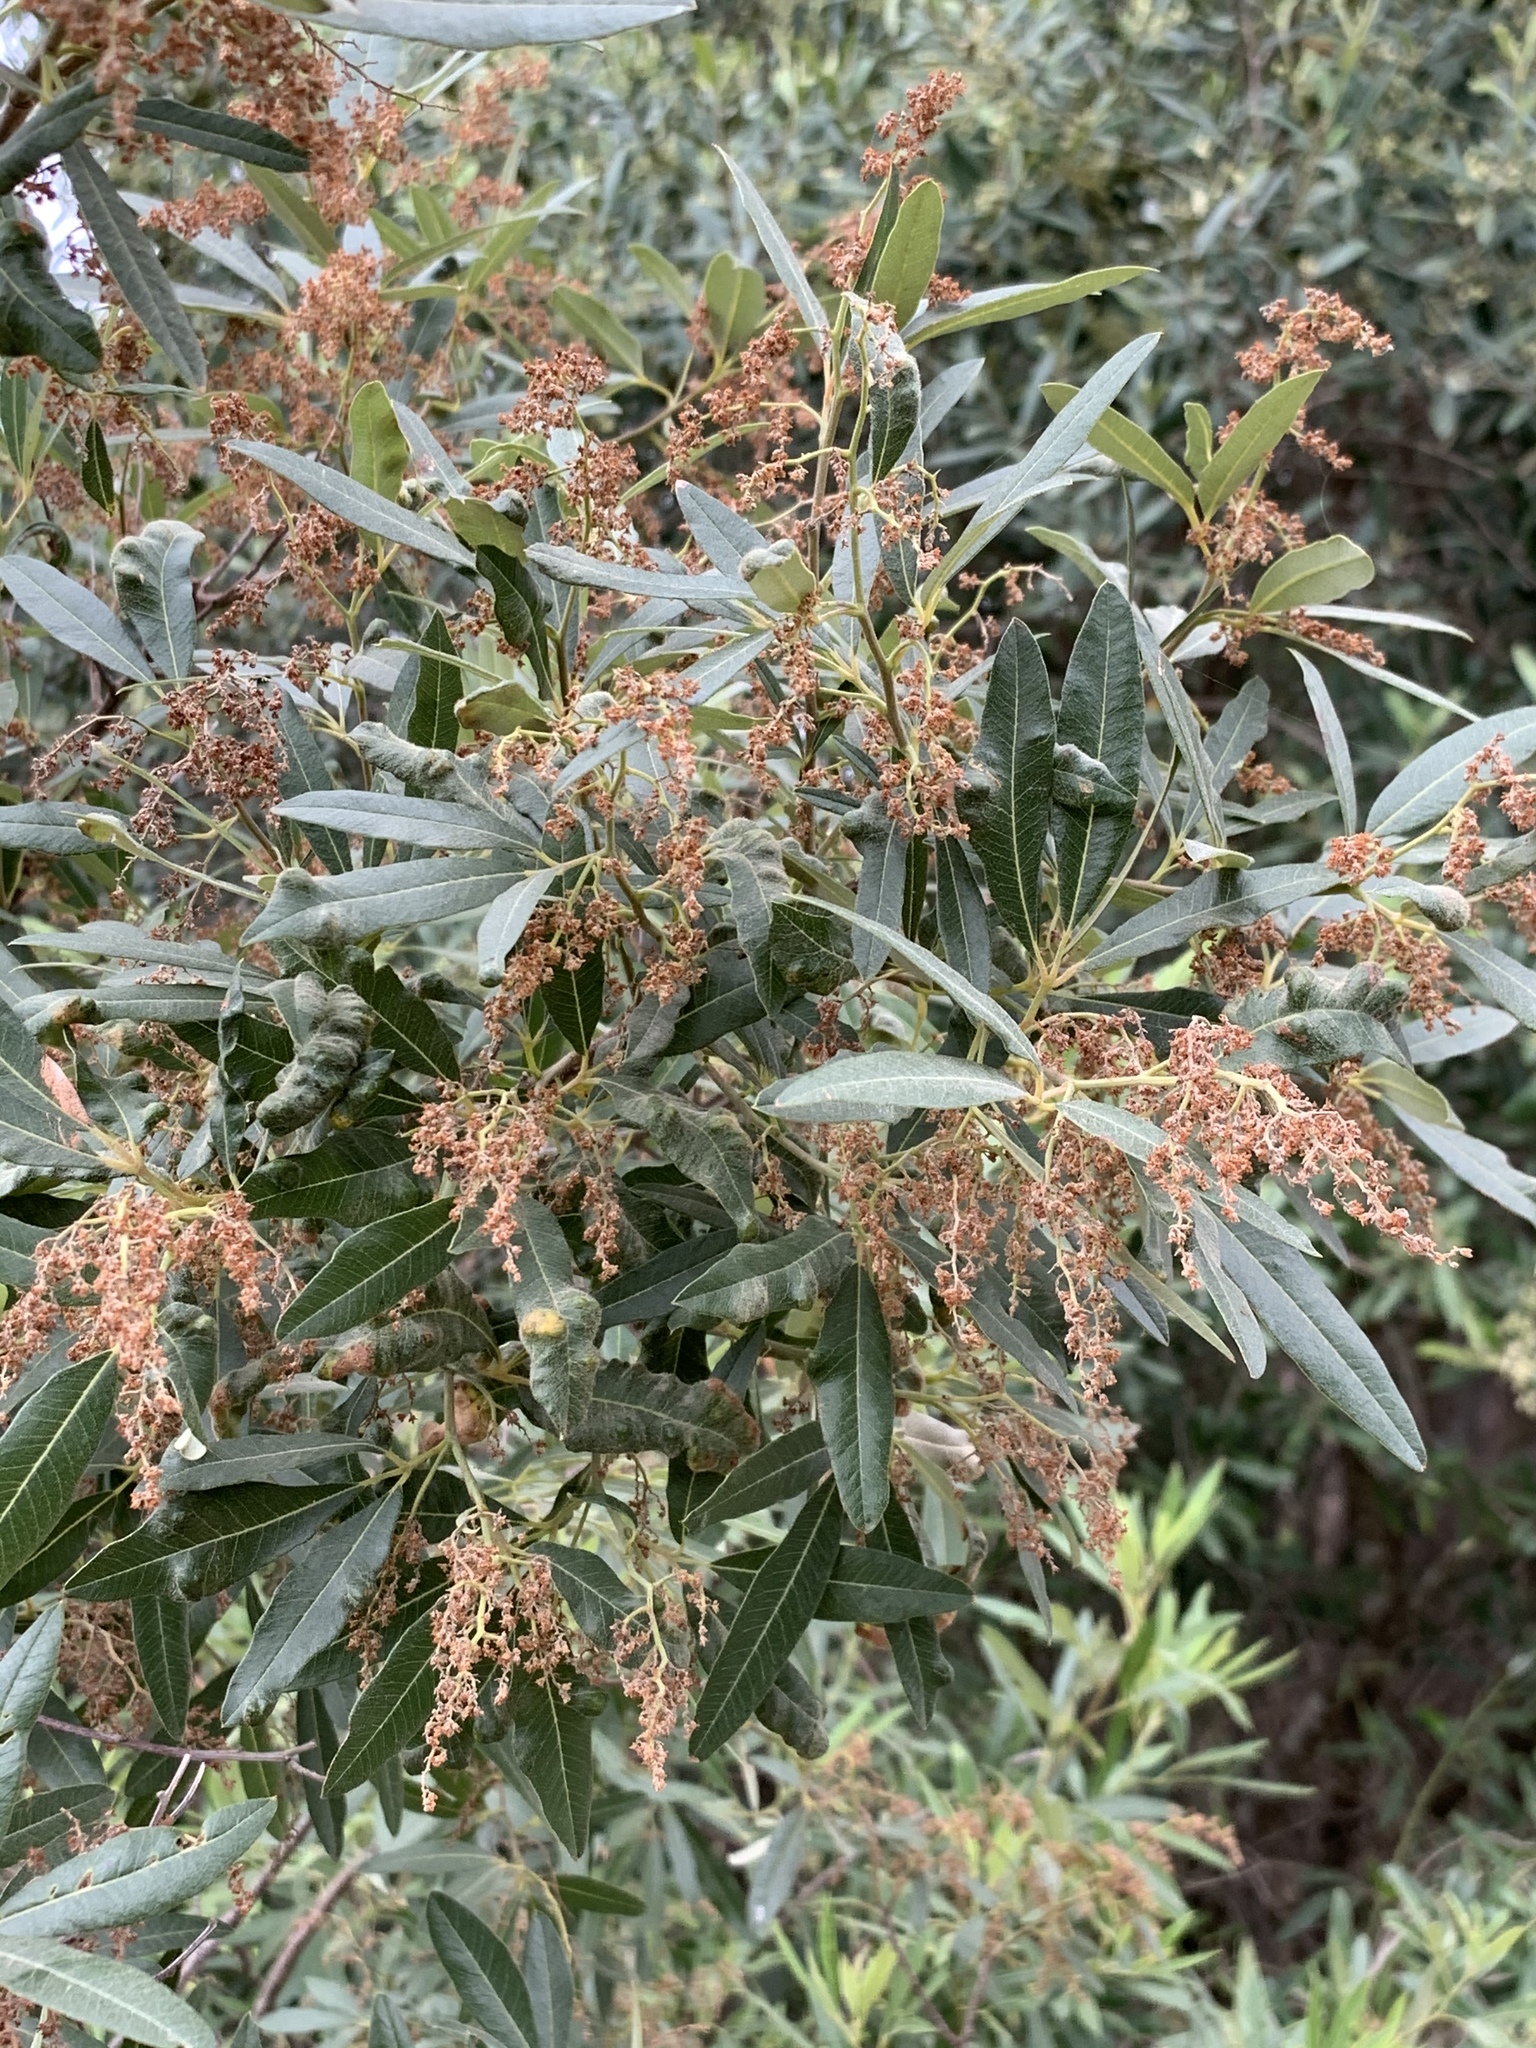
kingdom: Plantae
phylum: Tracheophyta
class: Magnoliopsida
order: Sapindales
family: Anacardiaceae
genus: Searsia
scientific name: Searsia angustifolia
